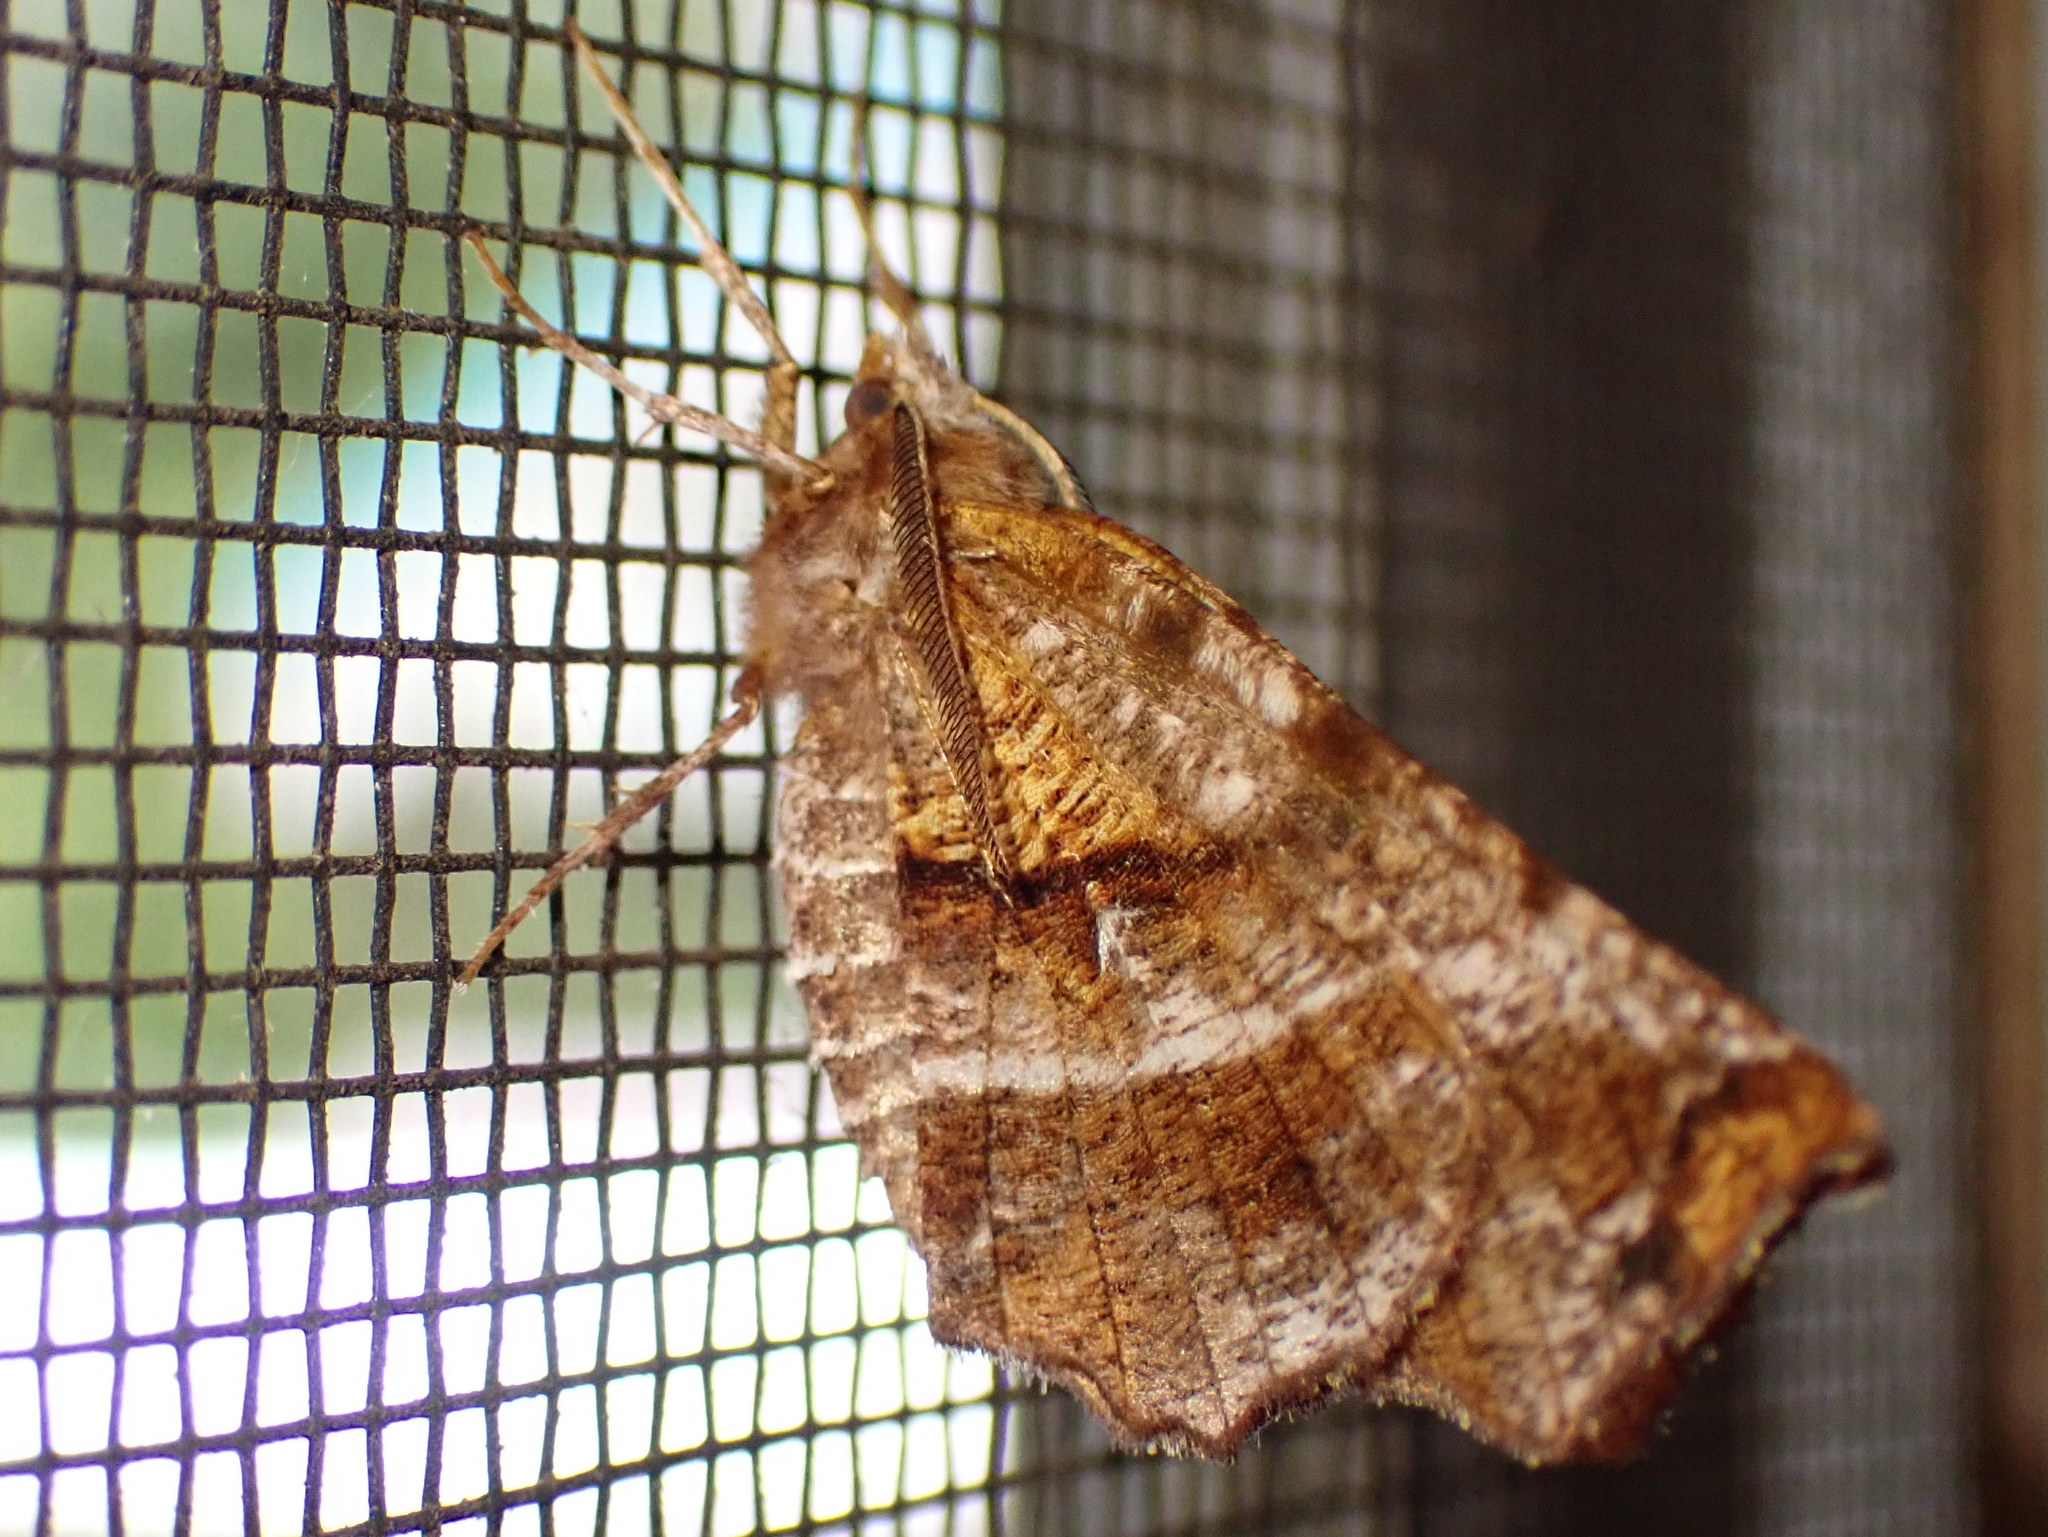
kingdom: Animalia
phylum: Arthropoda
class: Insecta
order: Lepidoptera
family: Geometridae
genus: Selenia
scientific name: Selenia alciphearia
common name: Brown-tipped thorn
